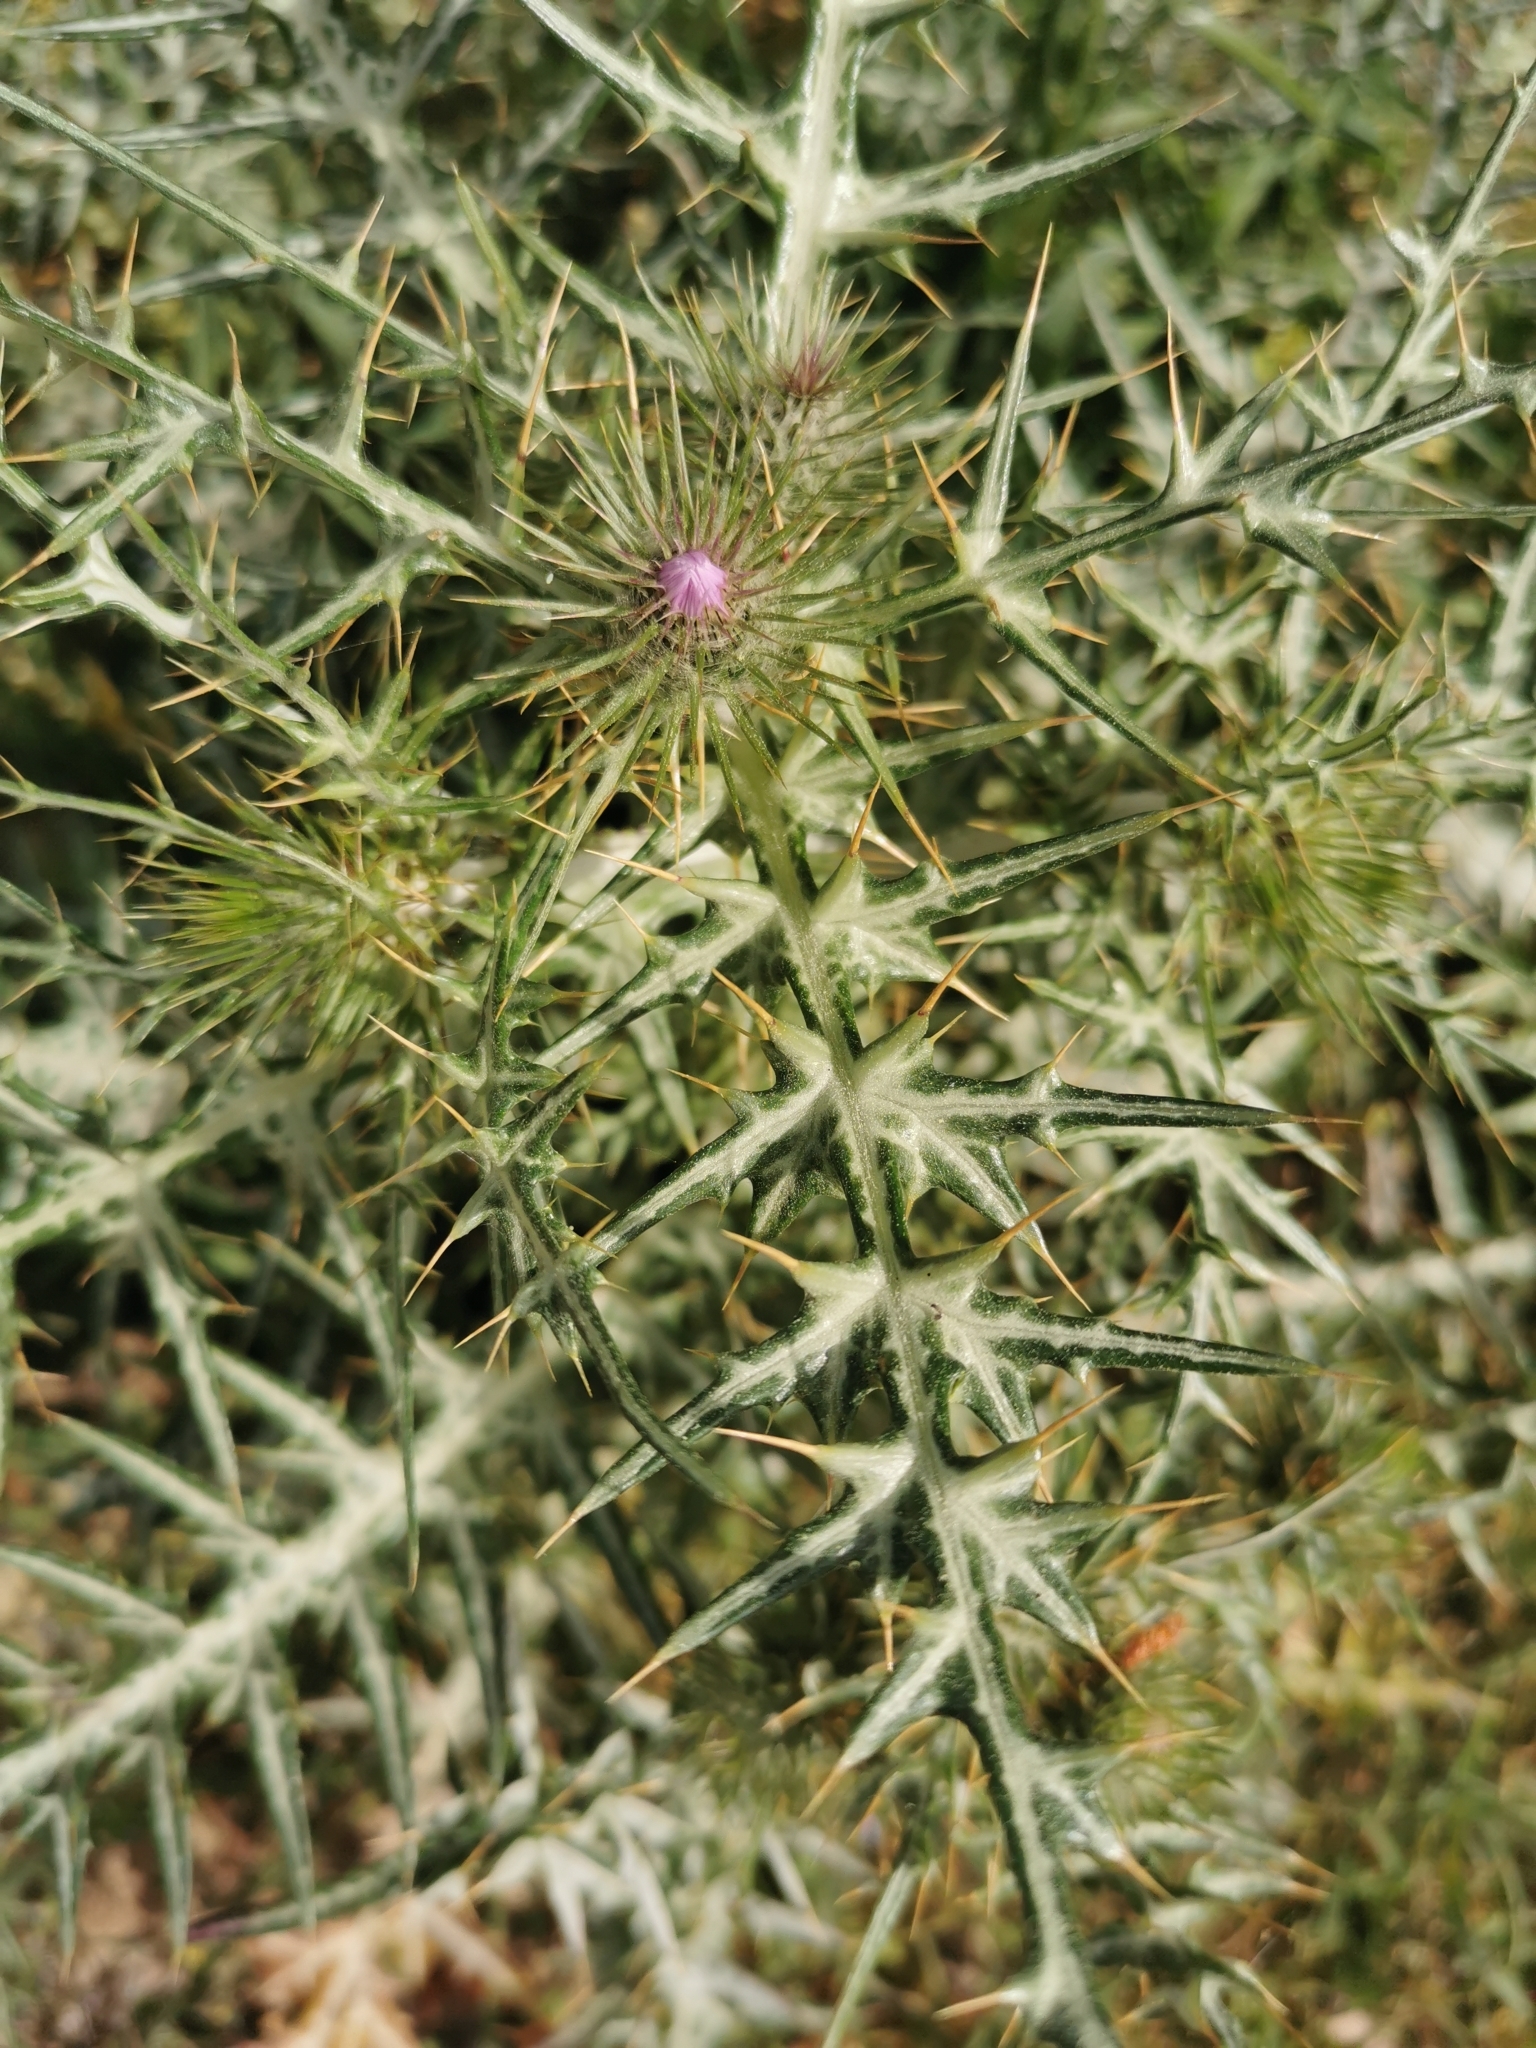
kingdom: Plantae
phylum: Tracheophyta
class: Magnoliopsida
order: Asterales
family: Asteraceae
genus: Galactites
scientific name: Galactites tomentosa
